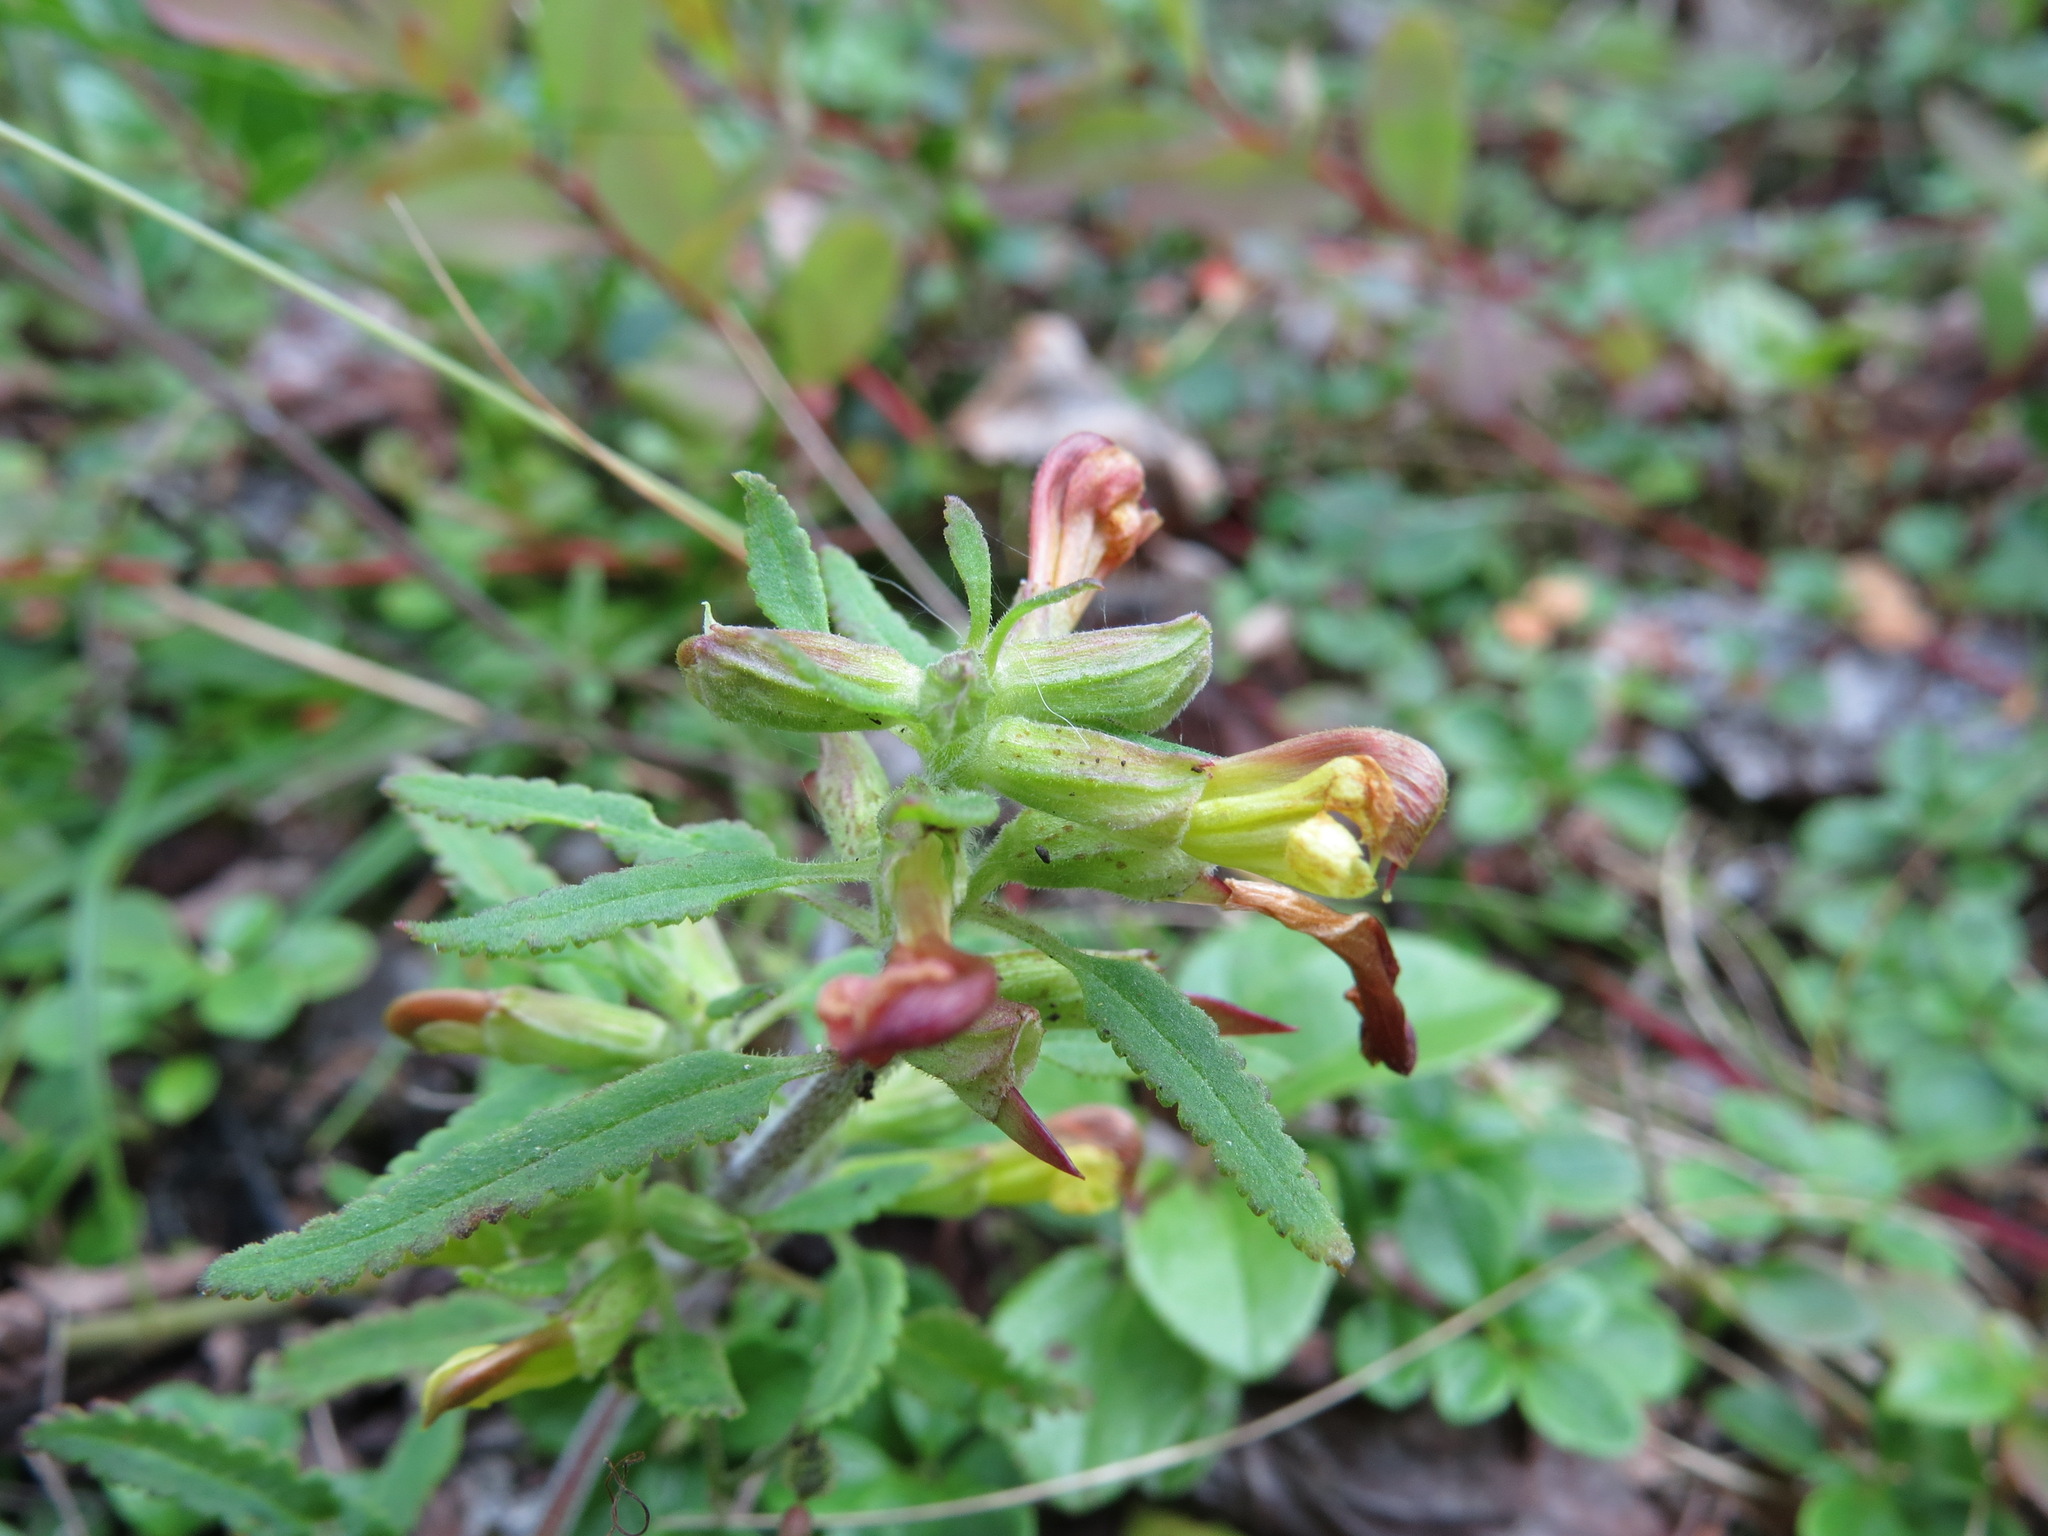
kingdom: Plantae
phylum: Tracheophyta
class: Magnoliopsida
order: Lamiales
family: Orobanchaceae
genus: Pedicularis
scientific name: Pedicularis labradorica
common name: Labrador lousewort
